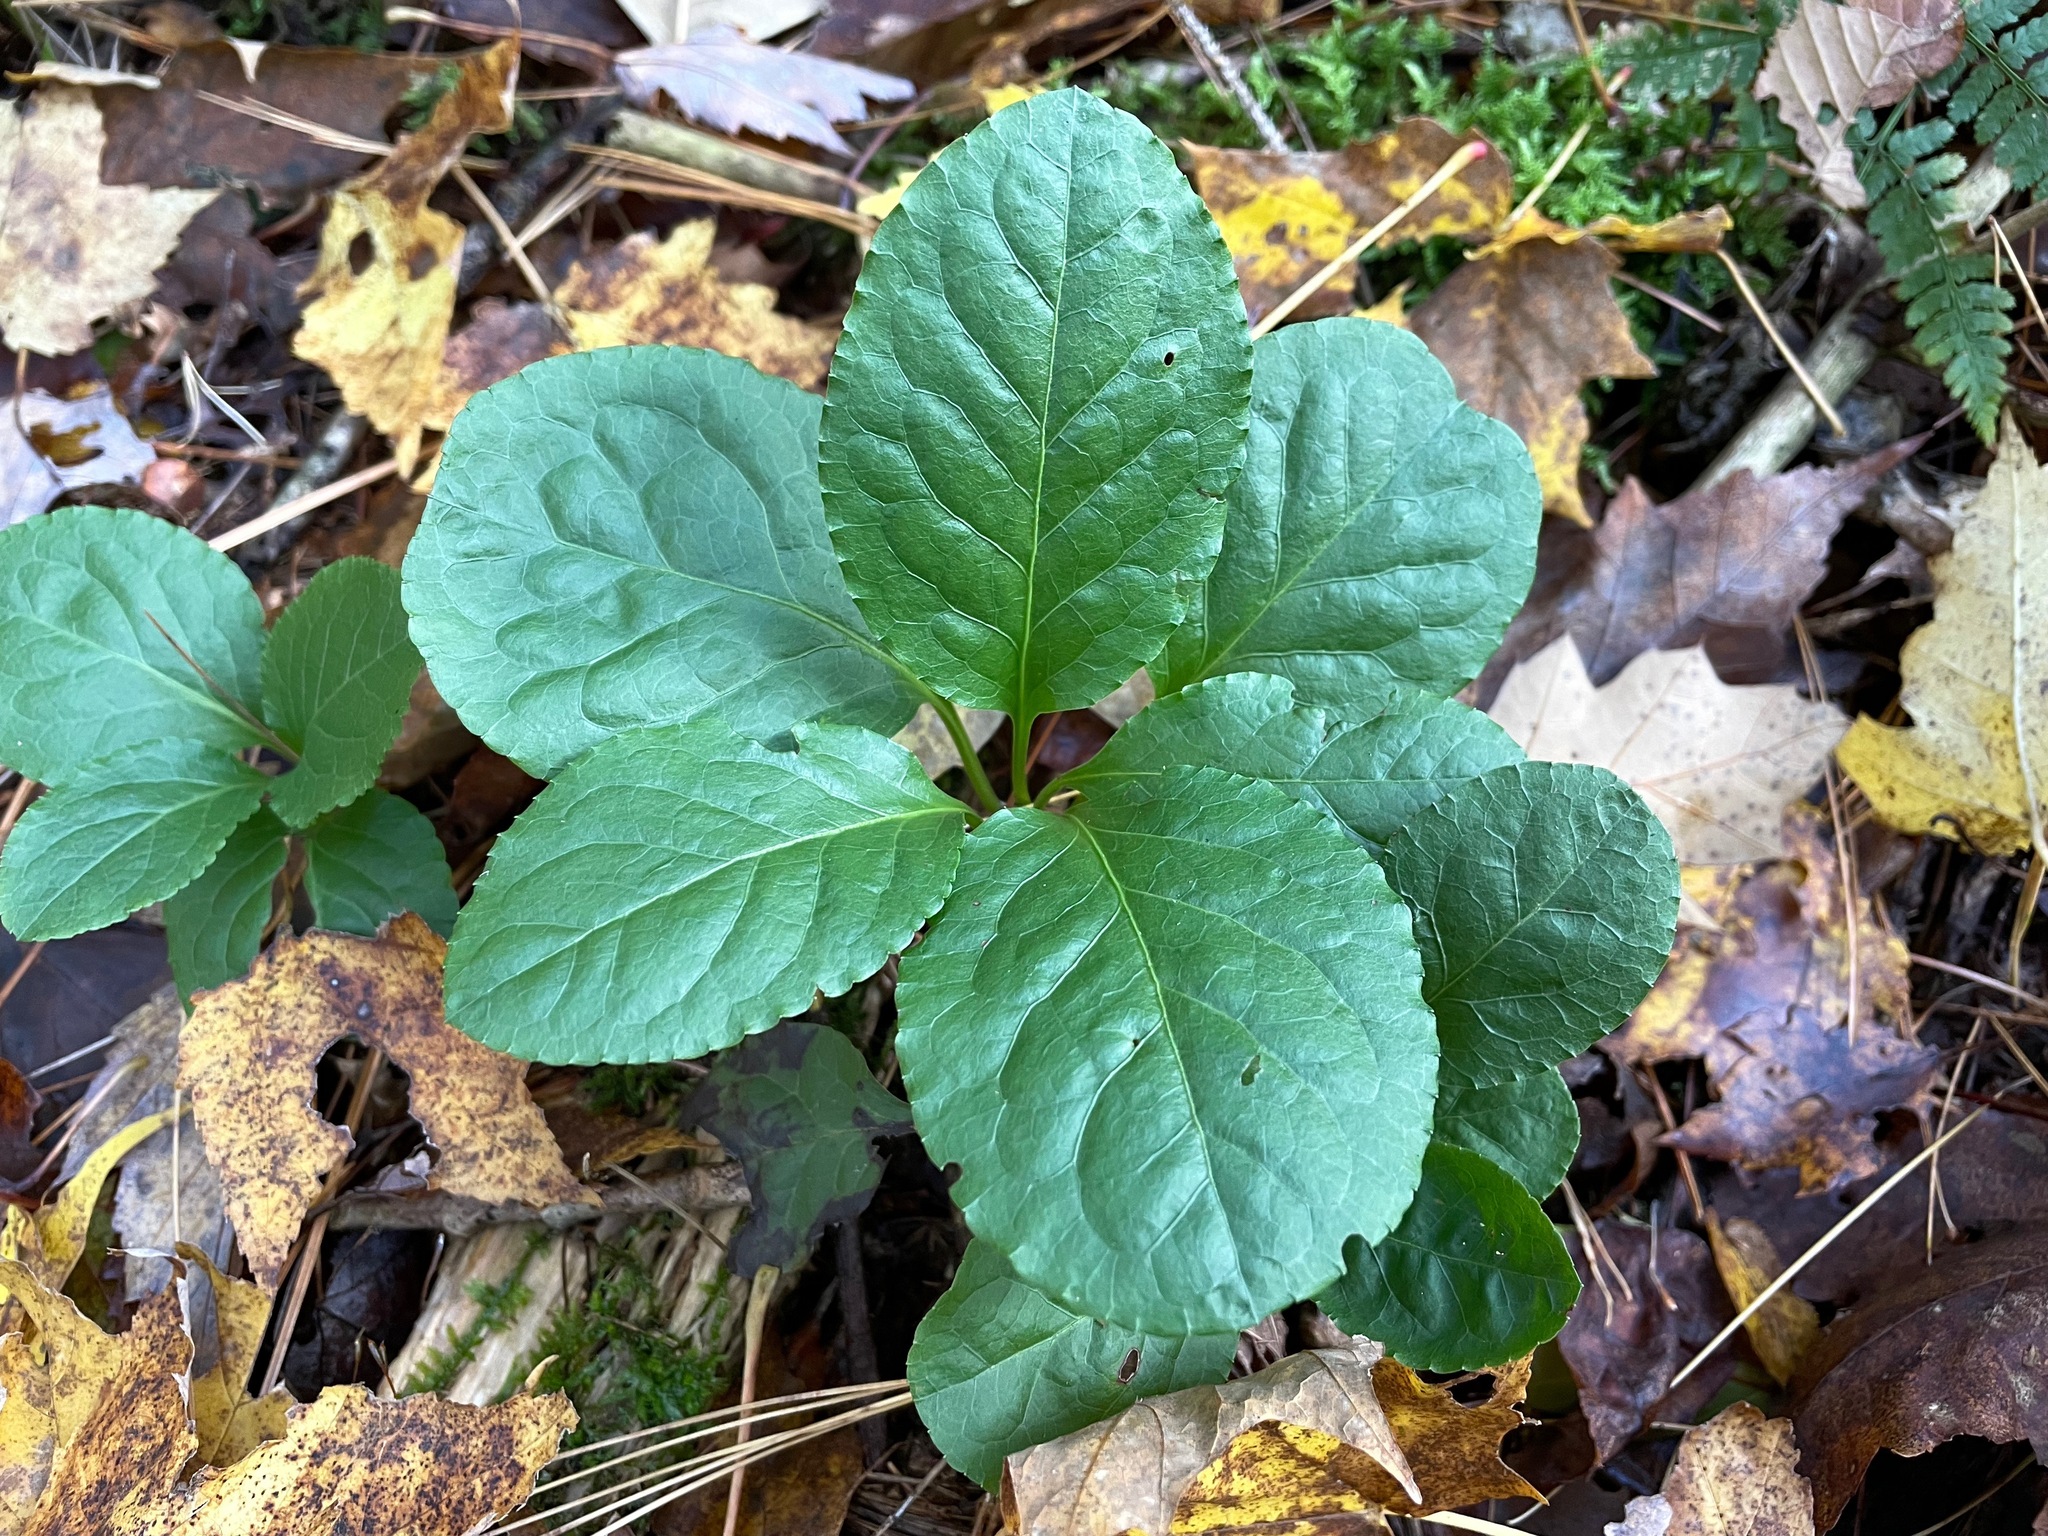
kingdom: Plantae
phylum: Tracheophyta
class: Magnoliopsida
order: Ericales
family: Ericaceae
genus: Pyrola
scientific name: Pyrola elliptica
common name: Shinleaf
